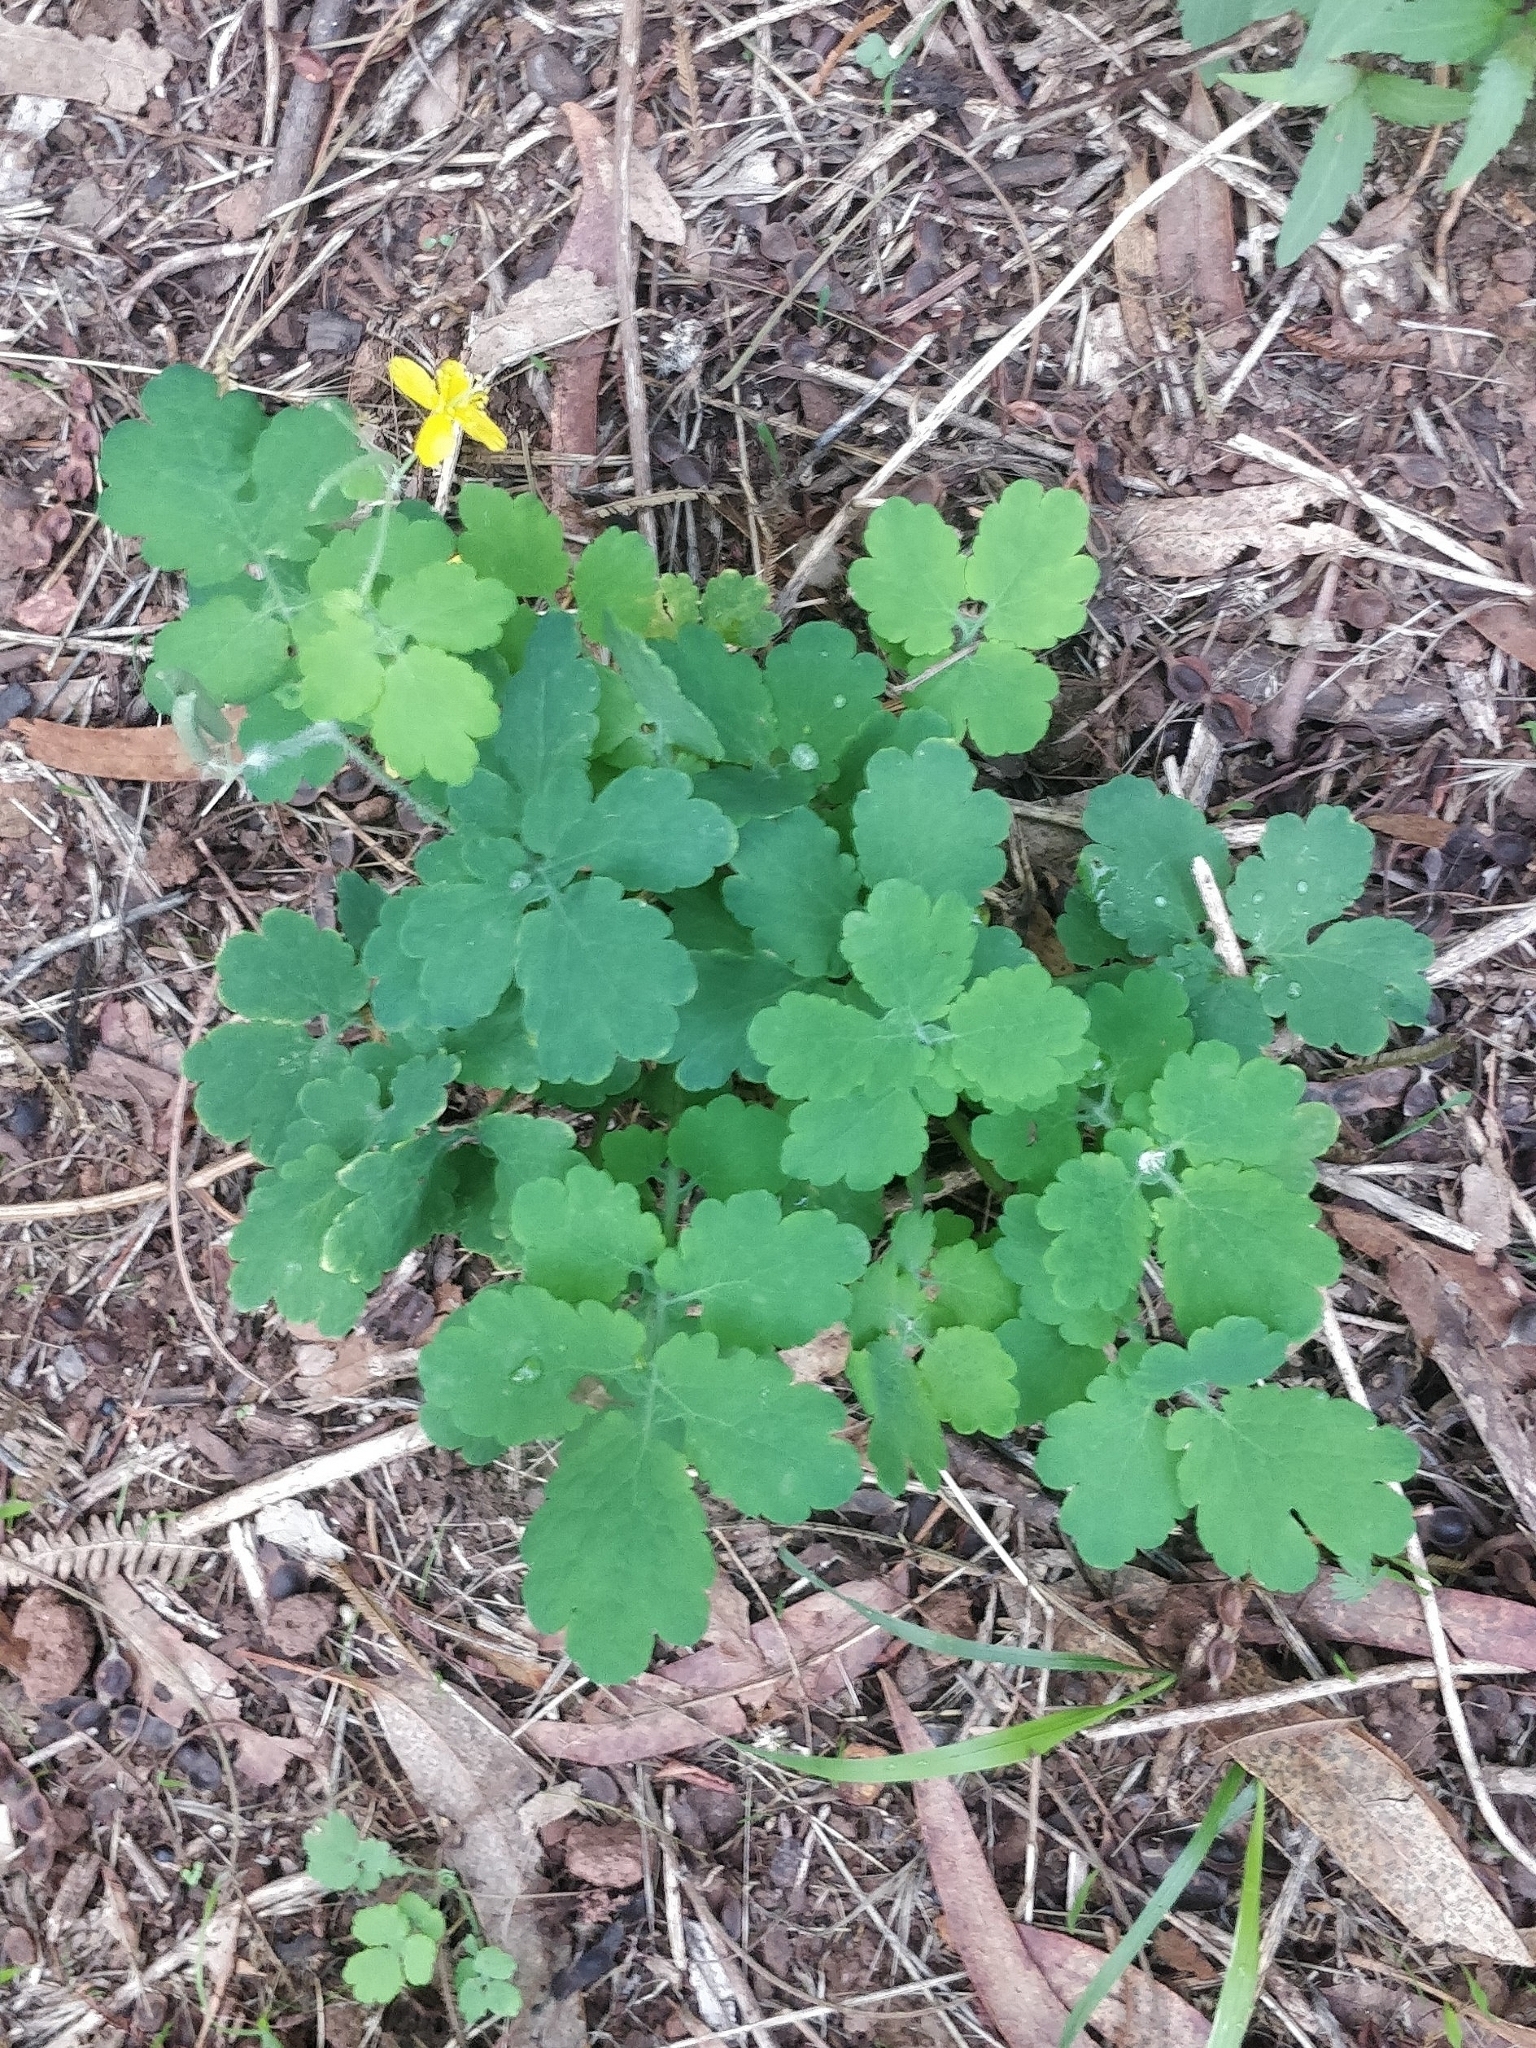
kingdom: Plantae
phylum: Tracheophyta
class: Magnoliopsida
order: Ranunculales
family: Papaveraceae
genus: Chelidonium
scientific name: Chelidonium majus
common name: Greater celandine
